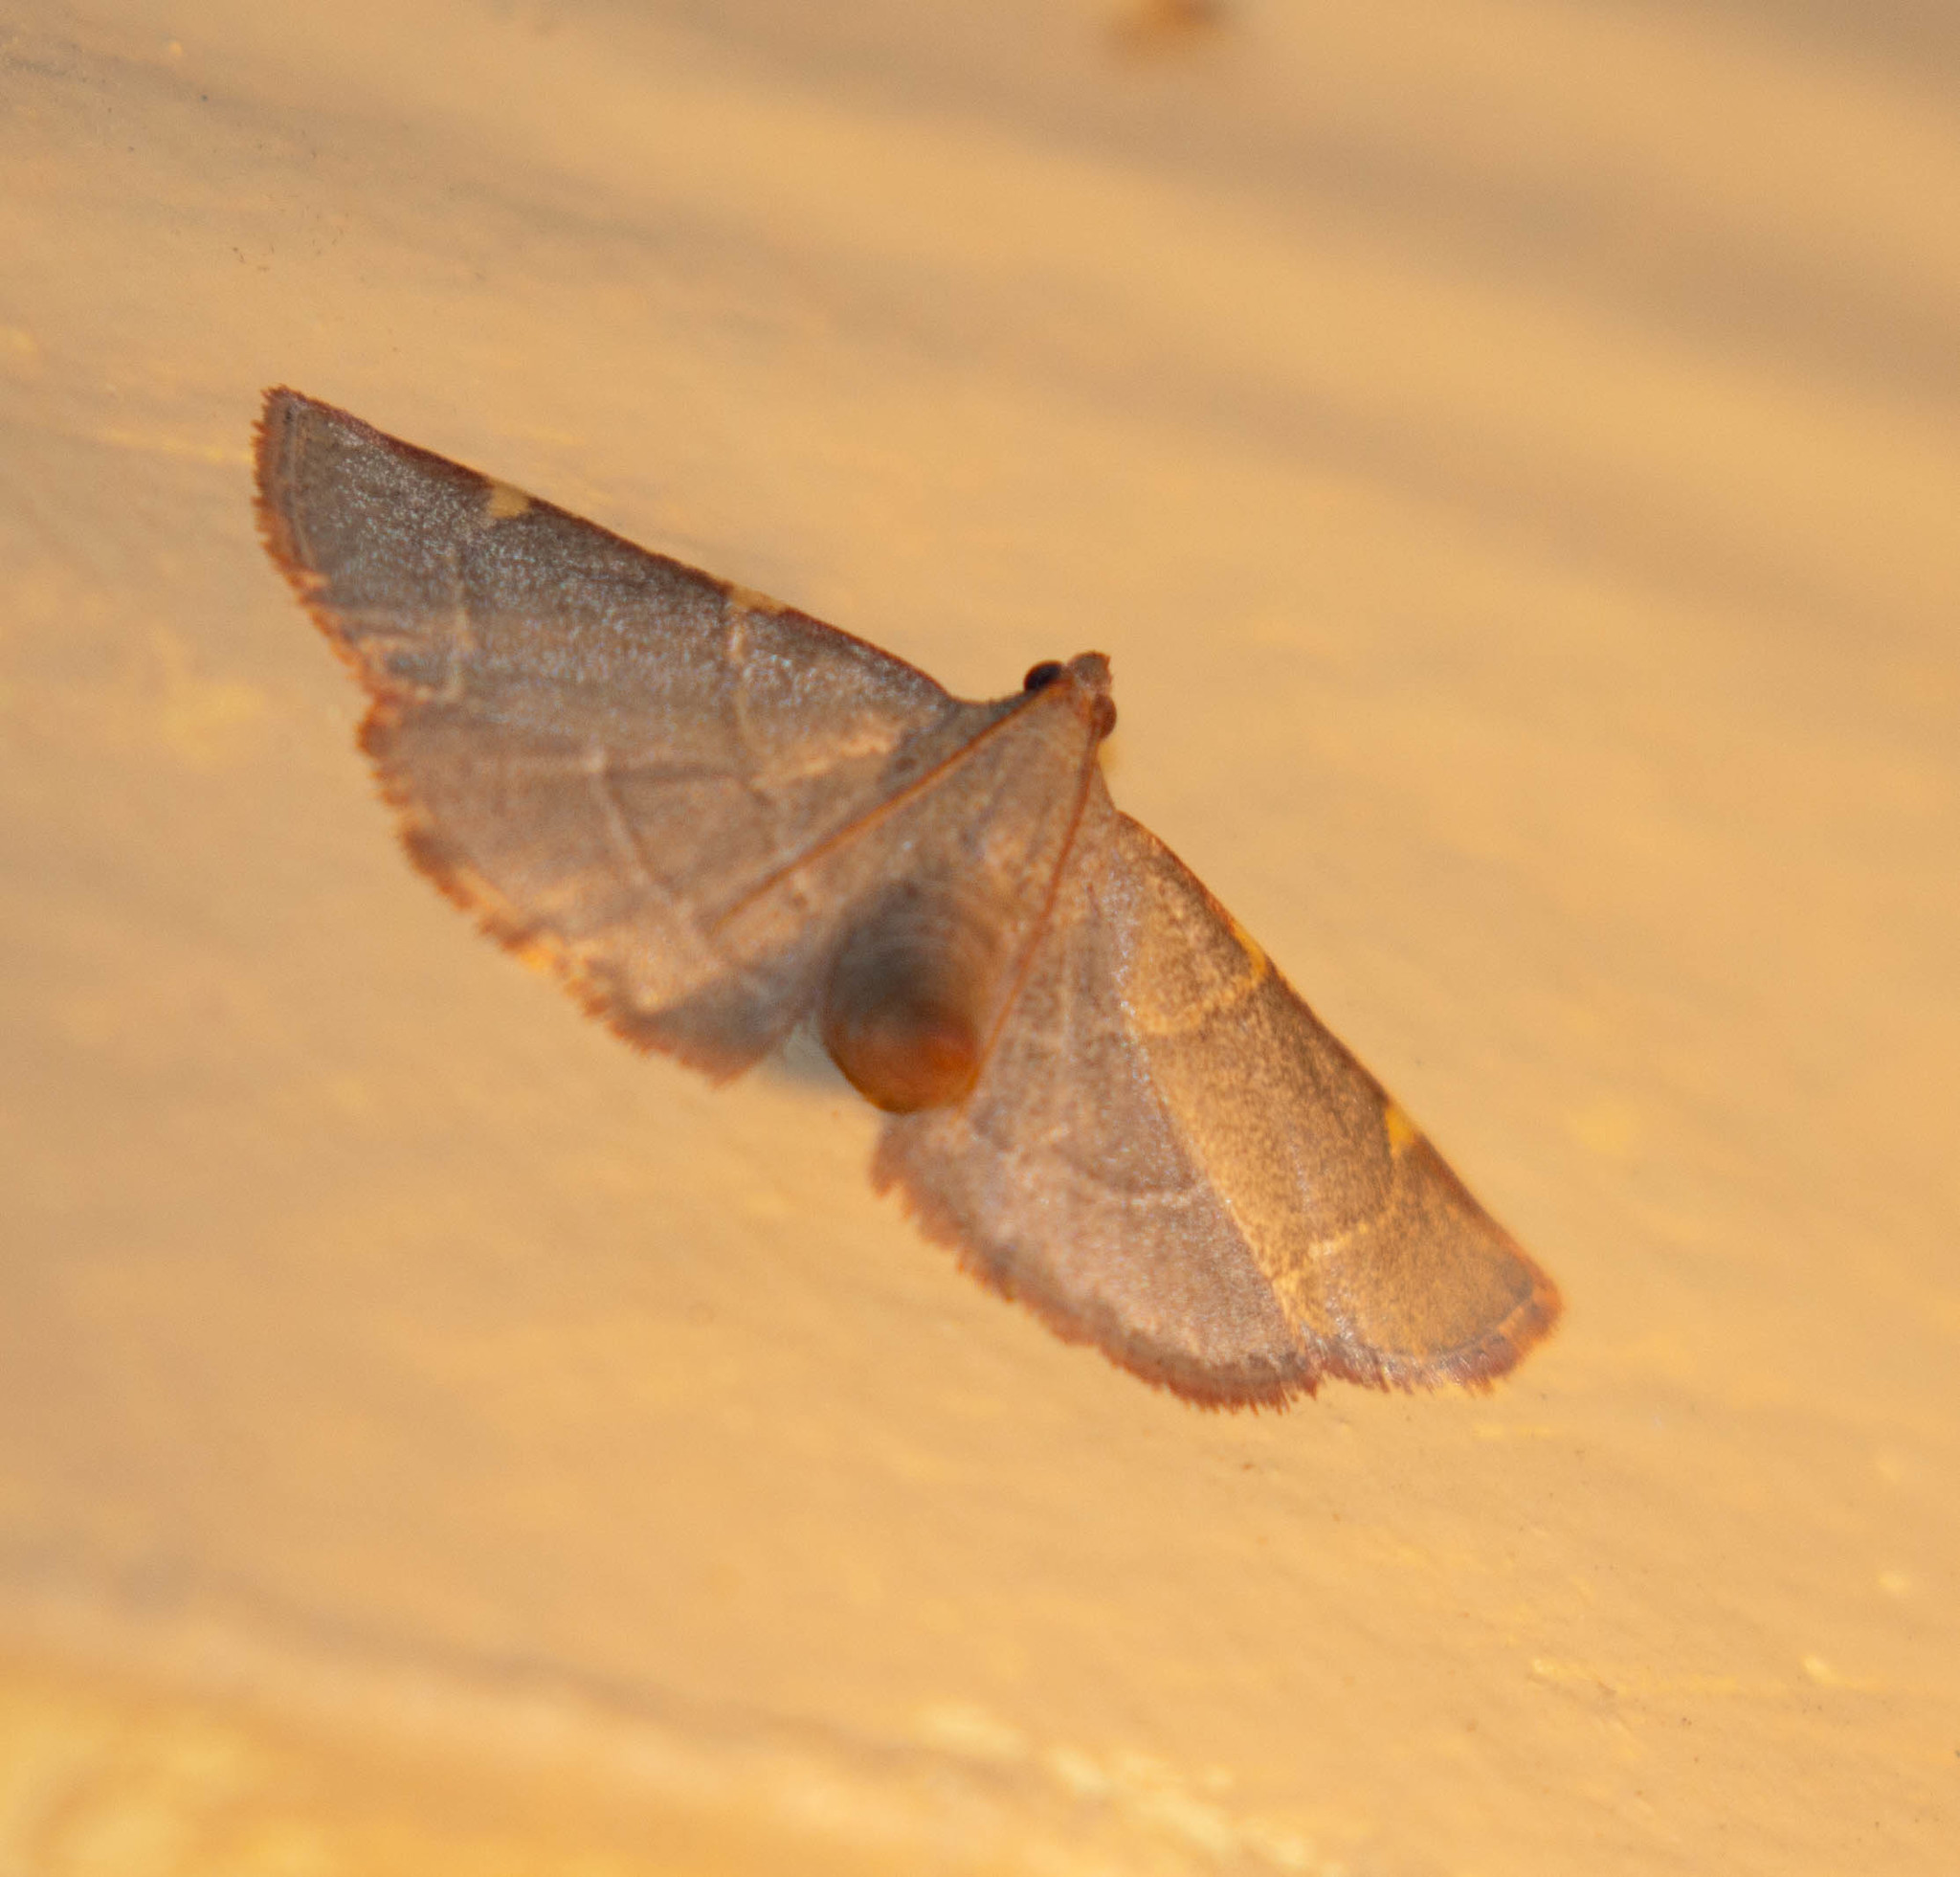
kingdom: Animalia
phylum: Arthropoda
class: Insecta
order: Lepidoptera
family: Pyralidae
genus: Hypsopygia
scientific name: Hypsopygia binodulalis
